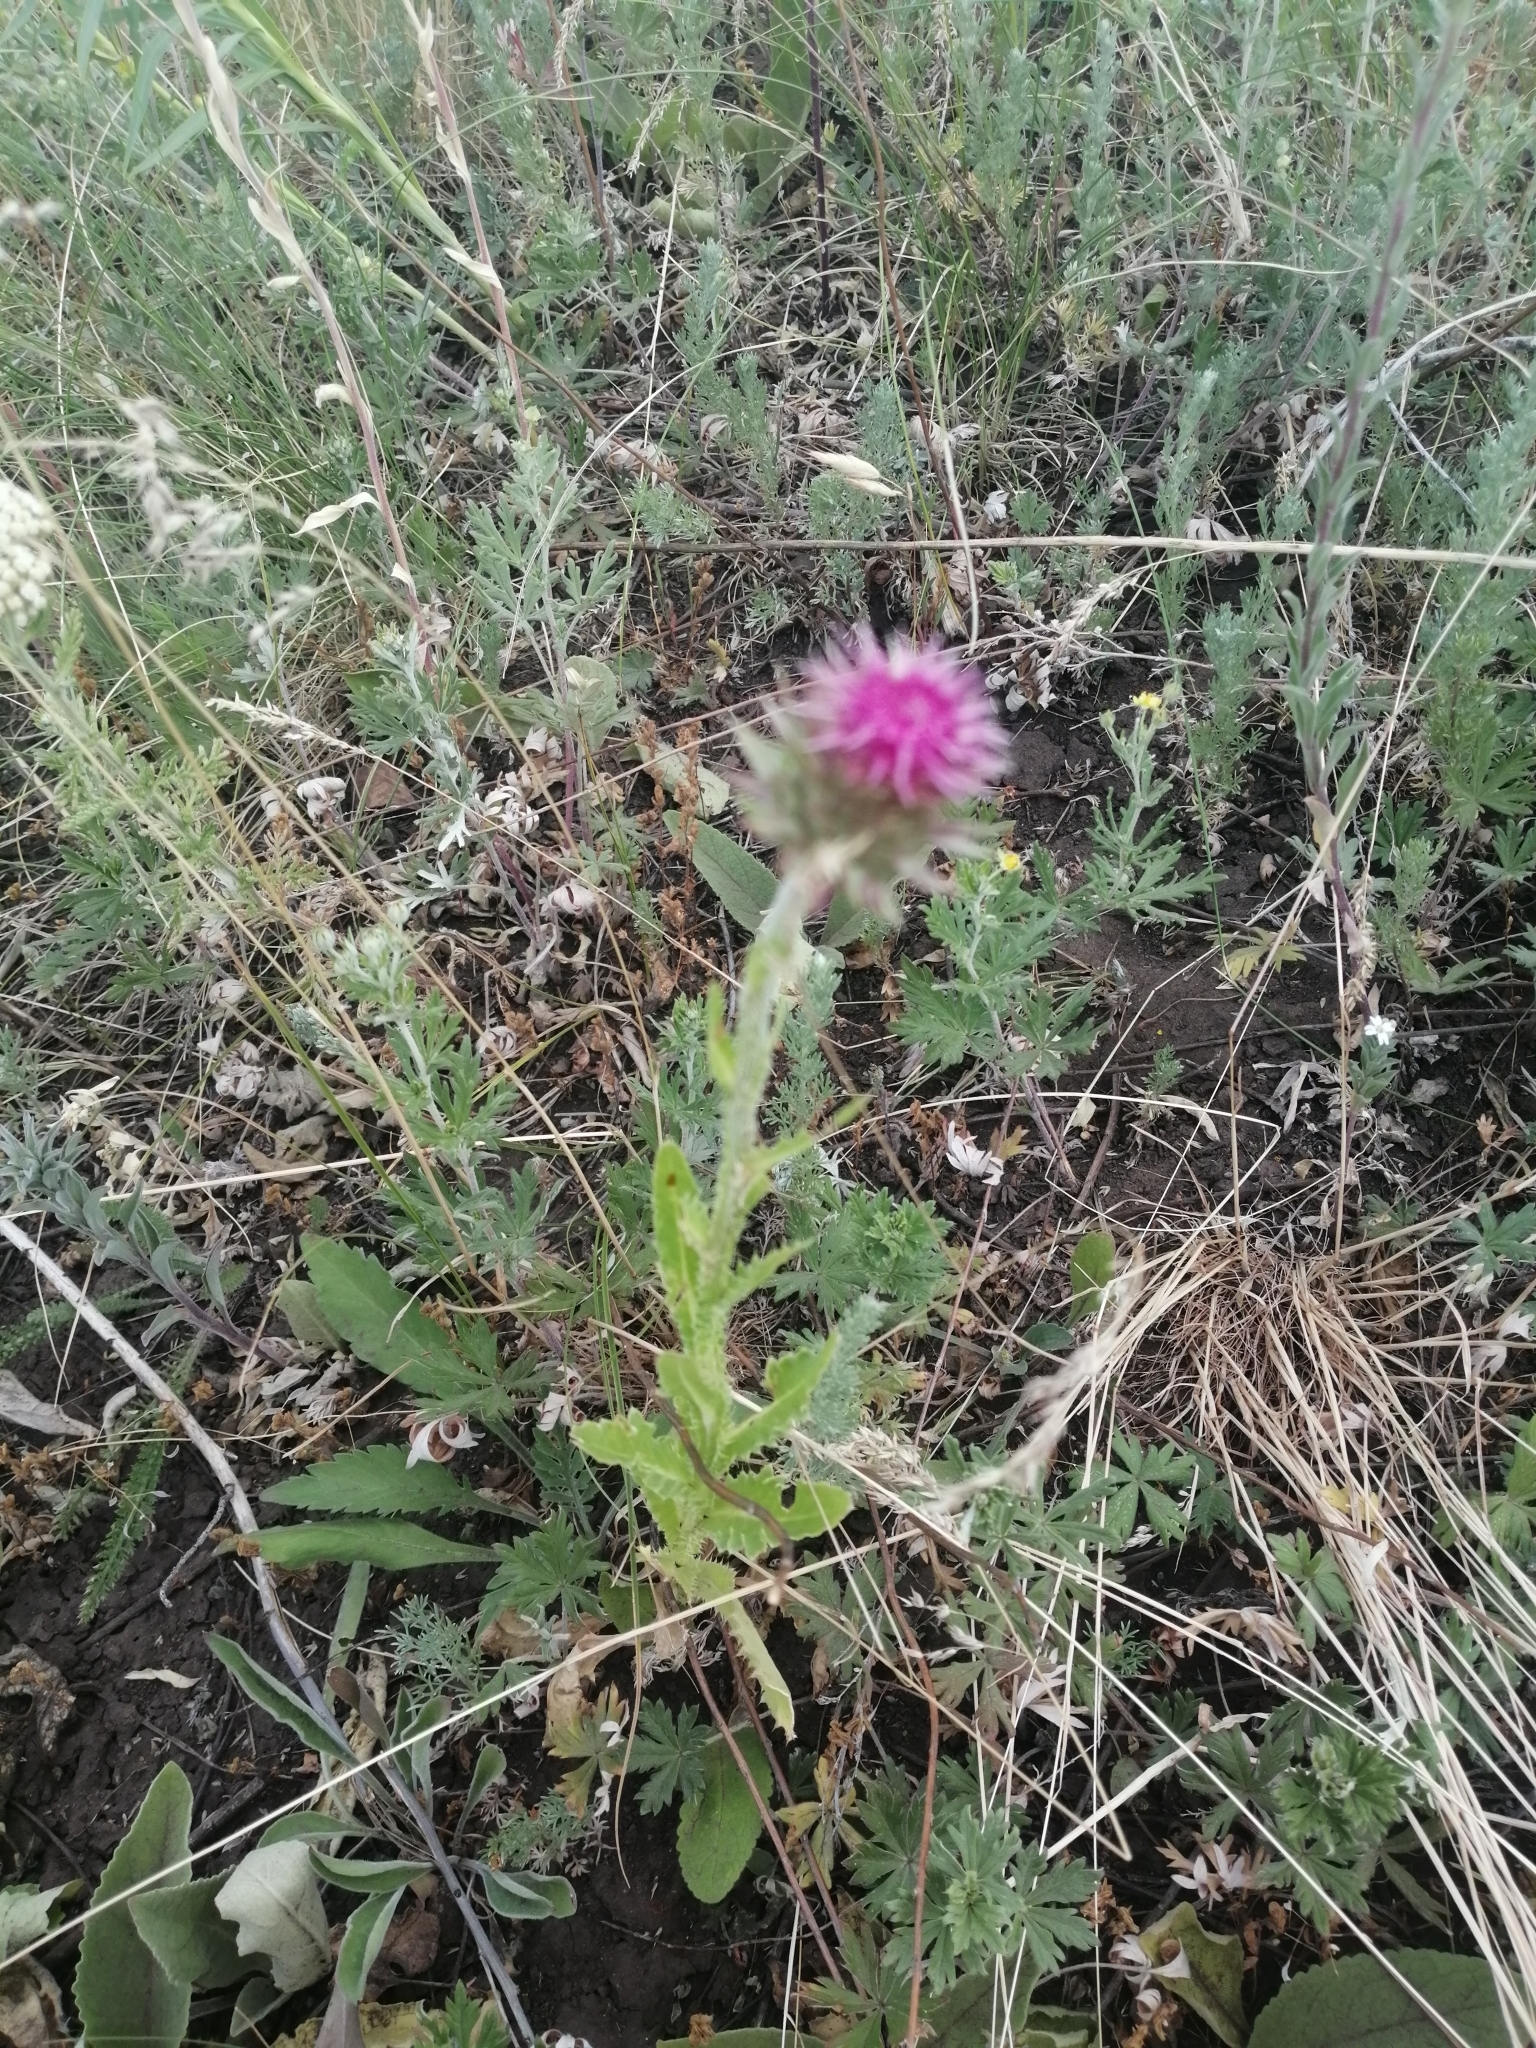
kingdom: Plantae
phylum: Tracheophyta
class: Magnoliopsida
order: Asterales
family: Asteraceae
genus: Carduus
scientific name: Carduus nutans
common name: Musk thistle
